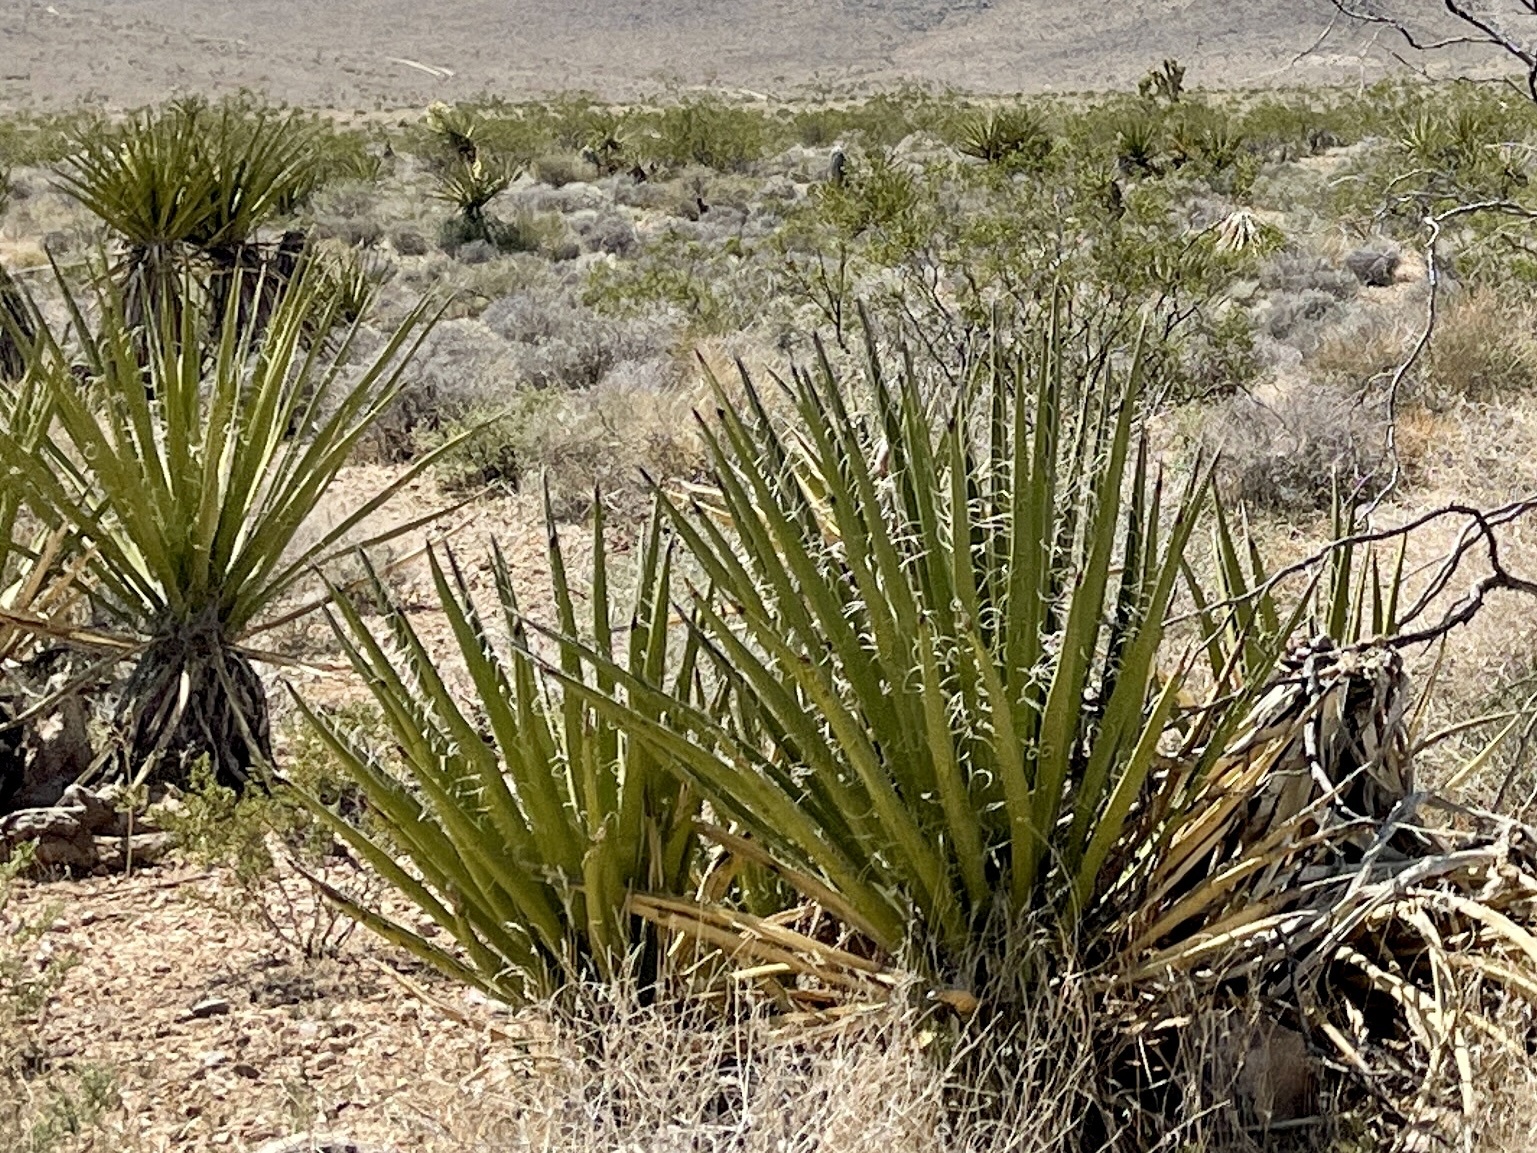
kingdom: Plantae
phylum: Tracheophyta
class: Liliopsida
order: Asparagales
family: Asparagaceae
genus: Yucca
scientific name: Yucca schidigera
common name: Mojave yucca
